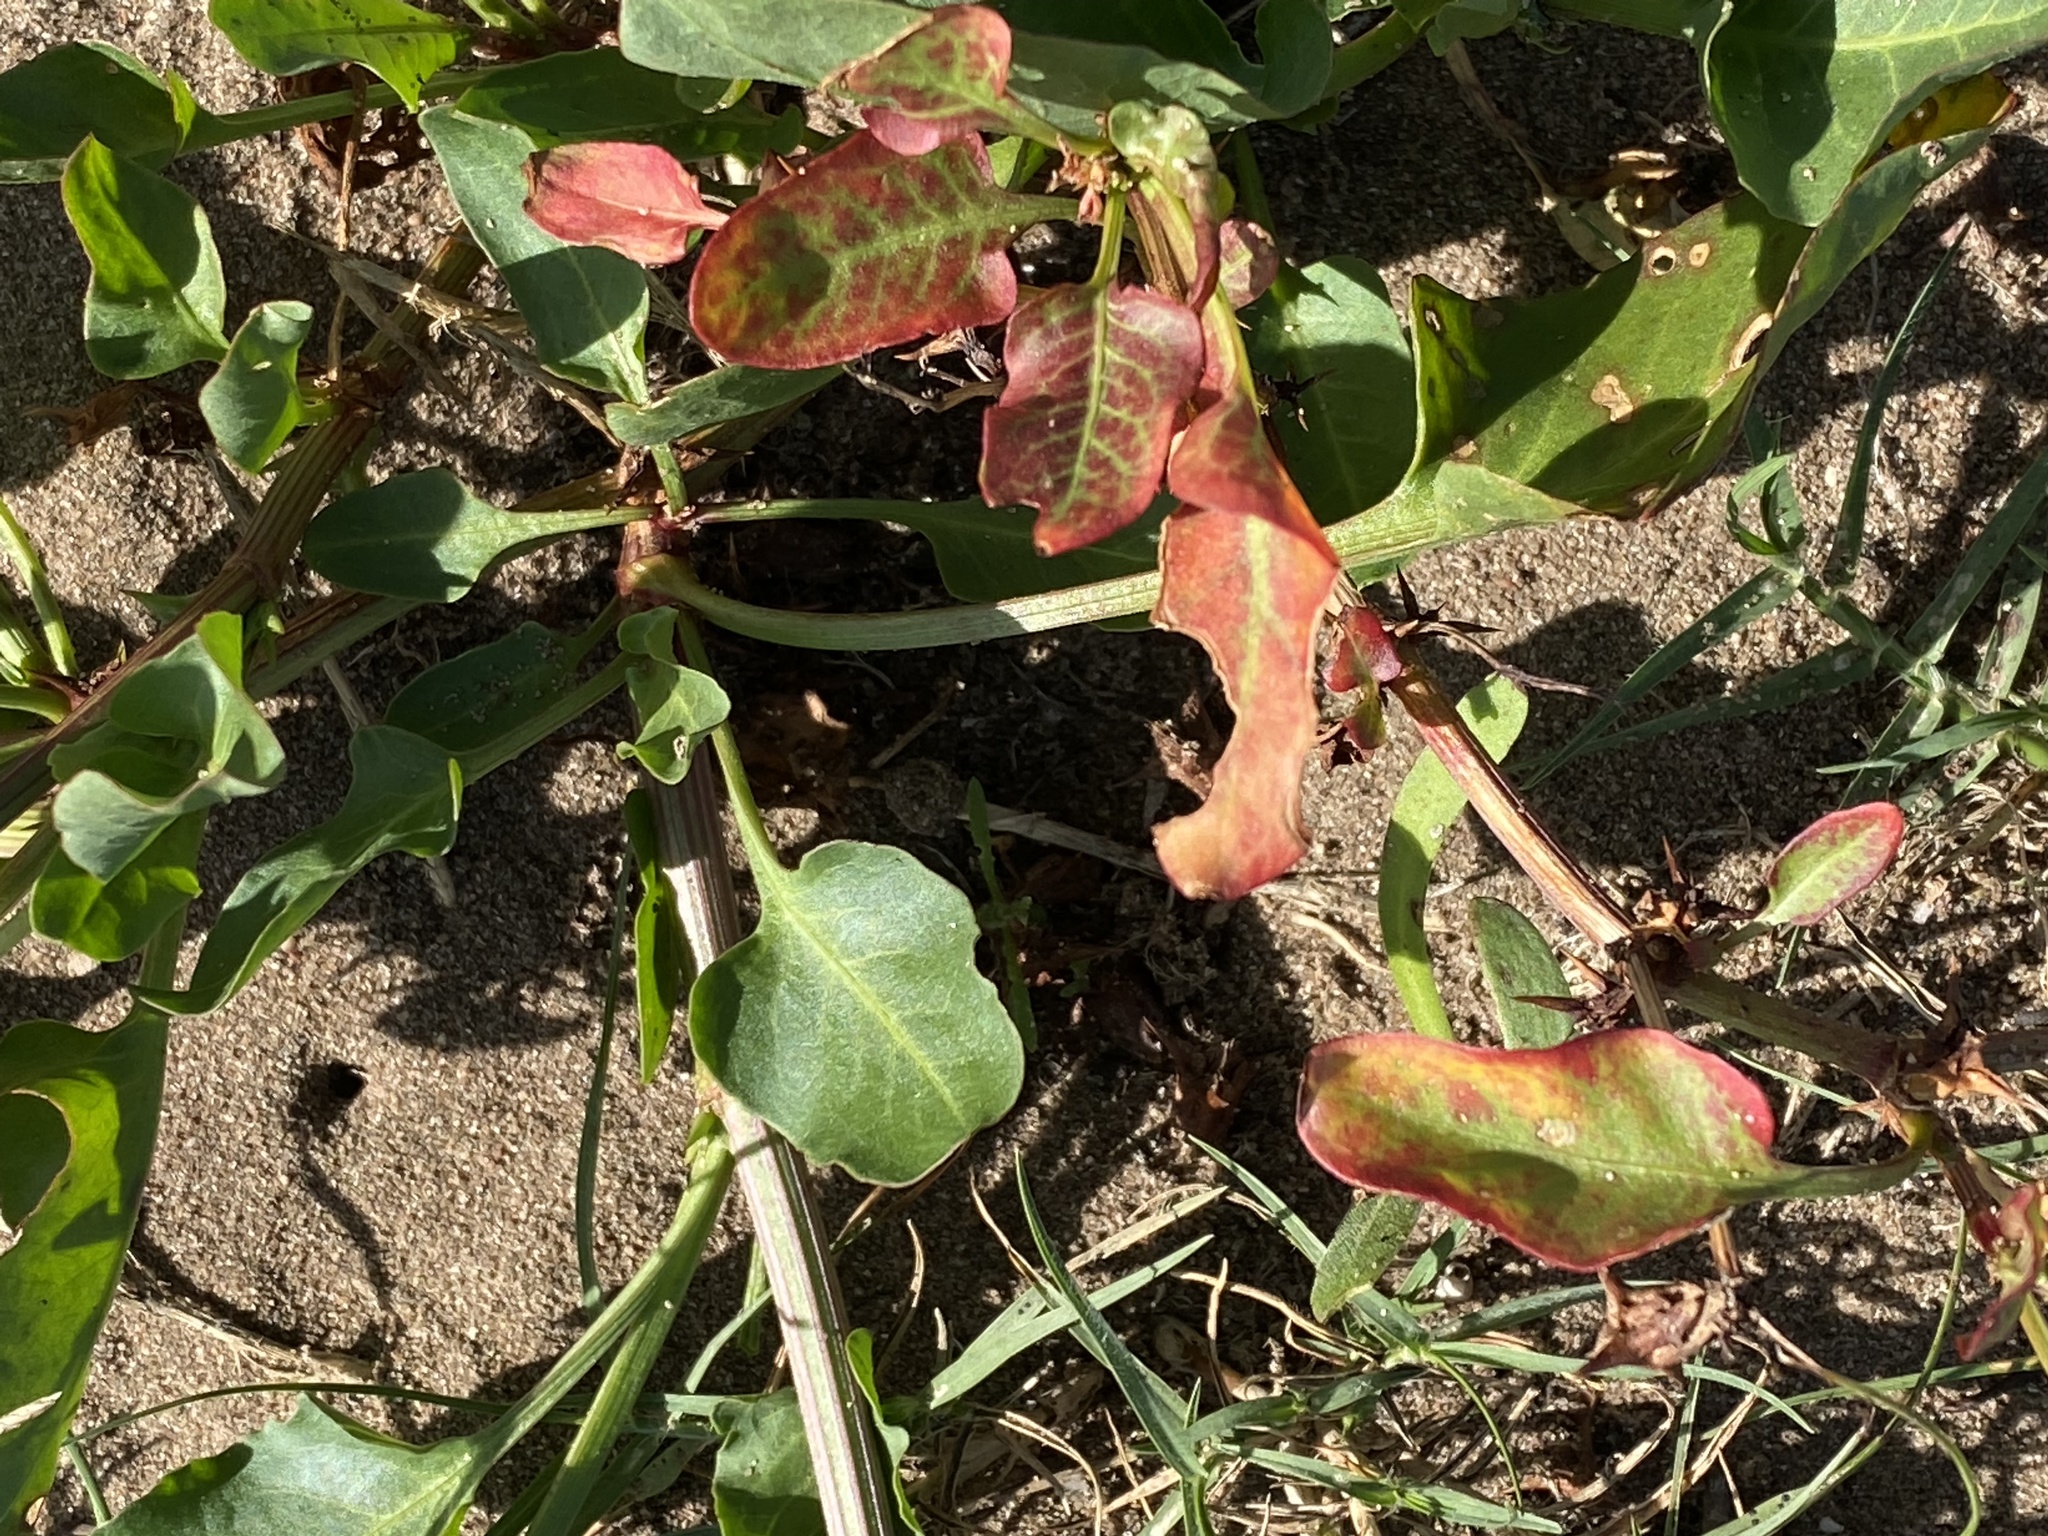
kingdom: Plantae
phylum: Tracheophyta
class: Magnoliopsida
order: Caryophyllales
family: Polygonaceae
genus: Rumex
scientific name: Rumex hypogaeus
